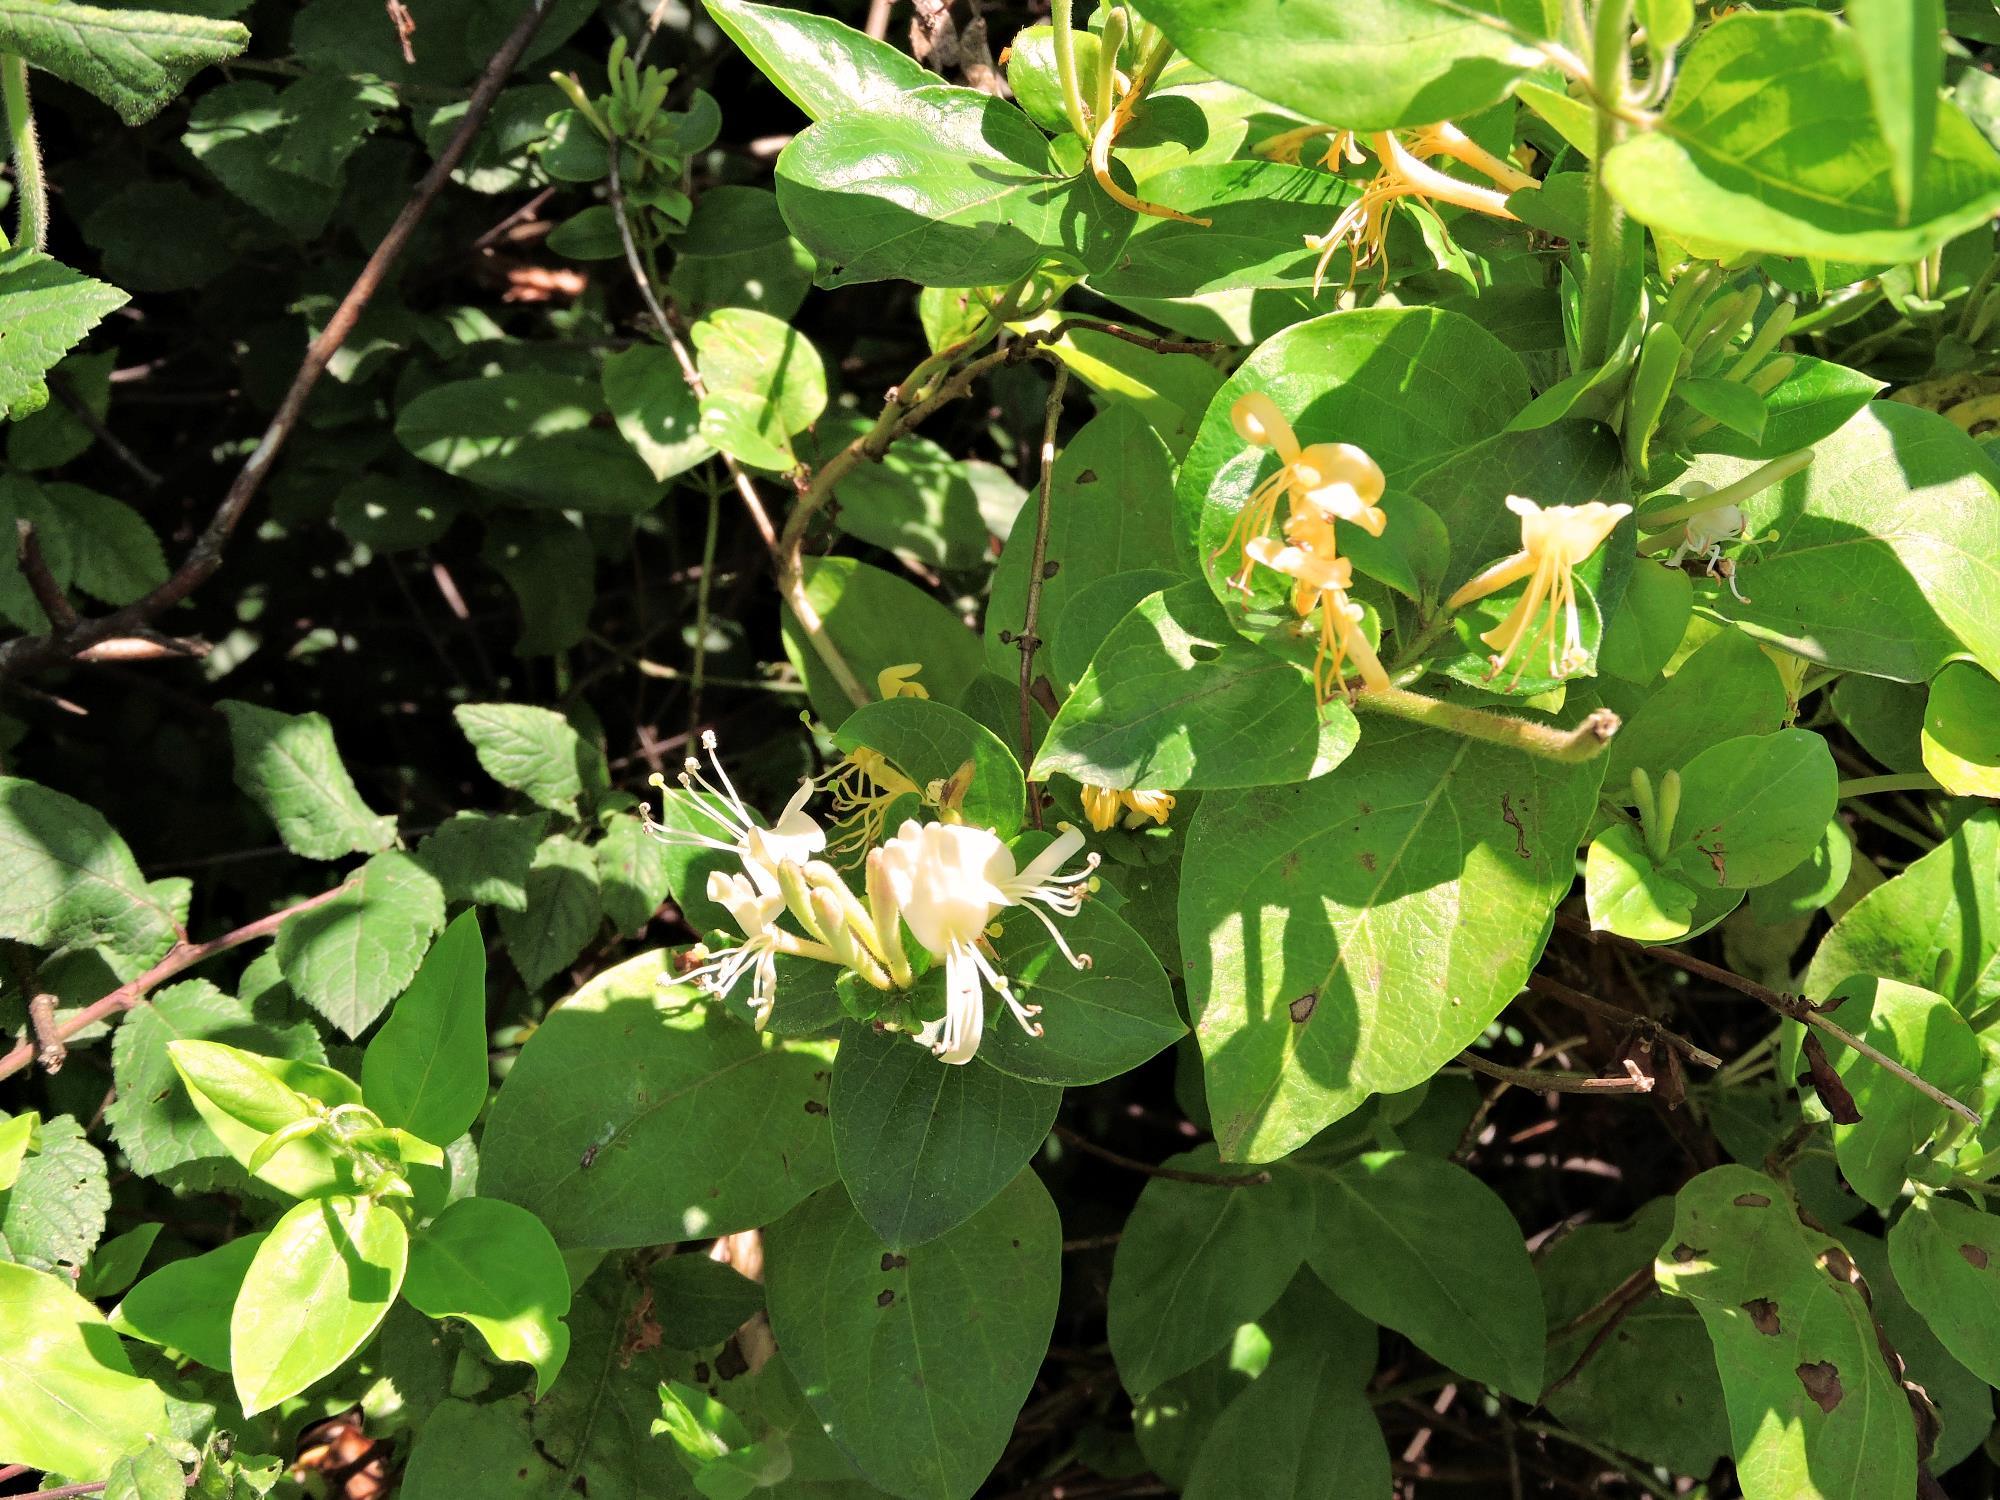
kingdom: Plantae
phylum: Tracheophyta
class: Magnoliopsida
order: Dipsacales
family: Caprifoliaceae
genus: Lonicera
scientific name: Lonicera japonica
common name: Japanese honeysuckle
